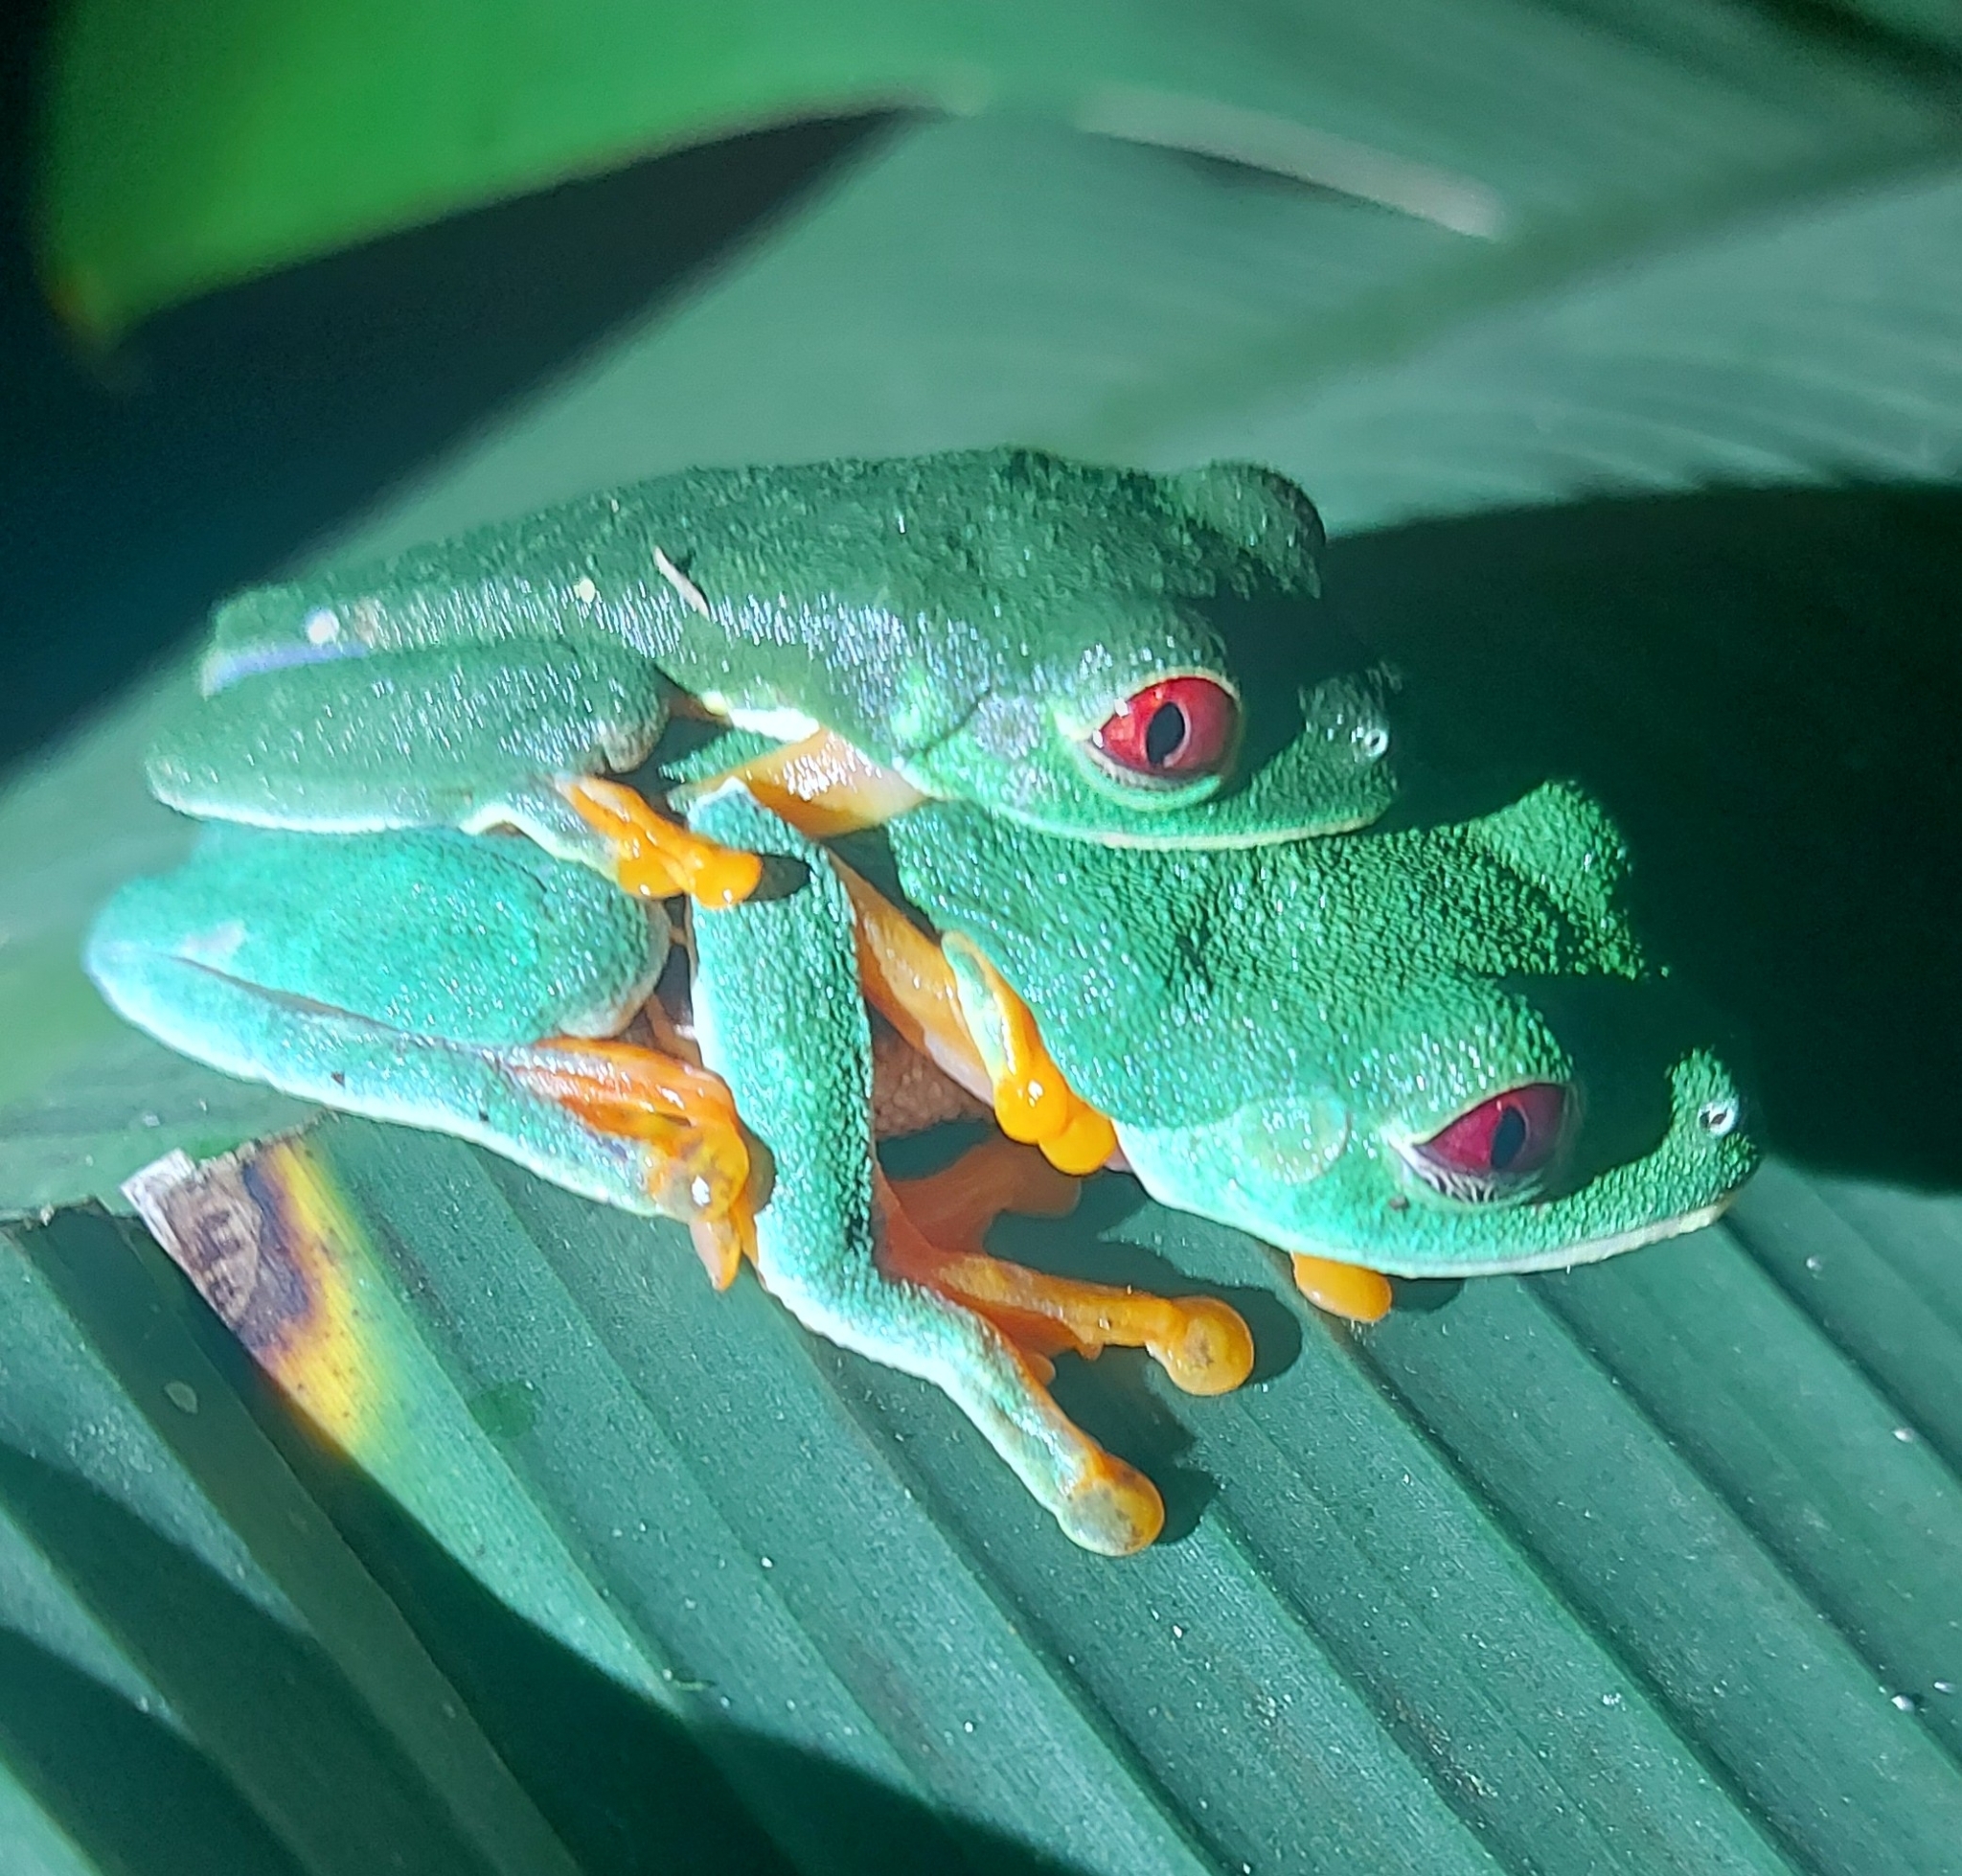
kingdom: Animalia
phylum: Chordata
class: Amphibia
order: Anura
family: Phyllomedusidae
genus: Agalychnis
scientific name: Agalychnis callidryas
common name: Red-eyed treefrog
